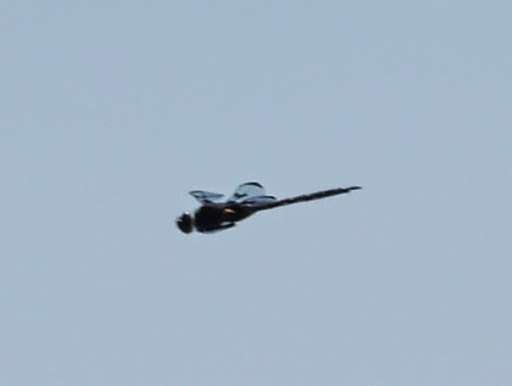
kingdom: Animalia
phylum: Arthropoda
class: Insecta
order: Odonata
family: Corduliidae
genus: Epitheca
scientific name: Epitheca princeps
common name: Prince baskettail
